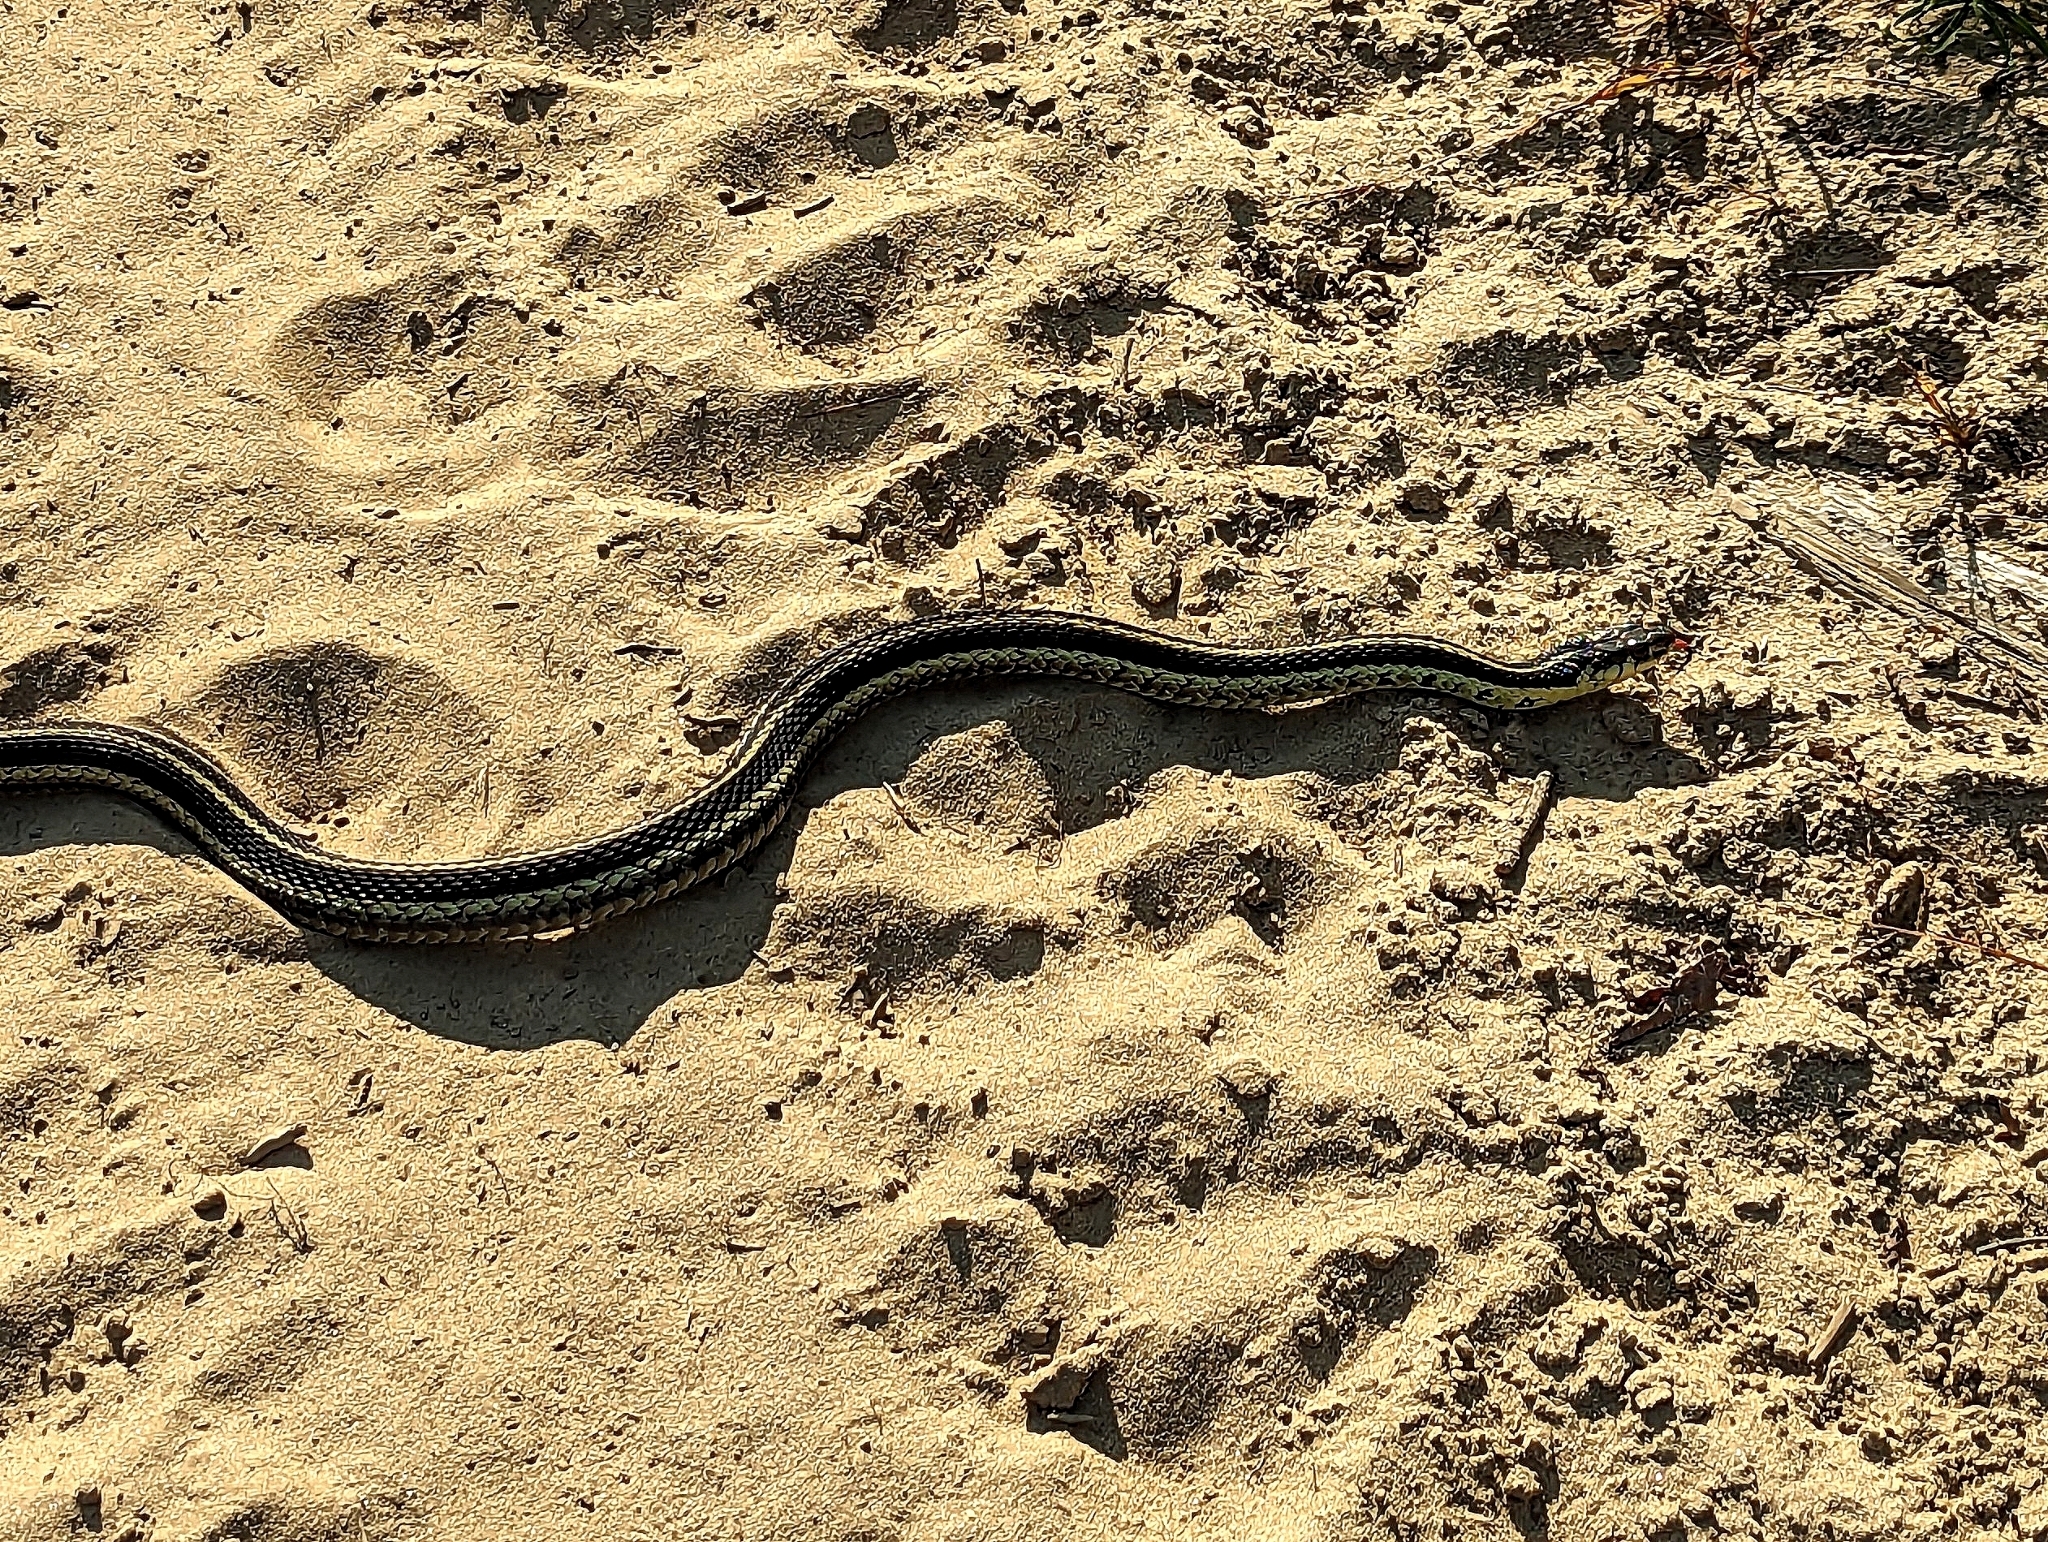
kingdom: Animalia
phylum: Chordata
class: Squamata
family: Colubridae
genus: Thamnophis
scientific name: Thamnophis sirtalis
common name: Common garter snake
